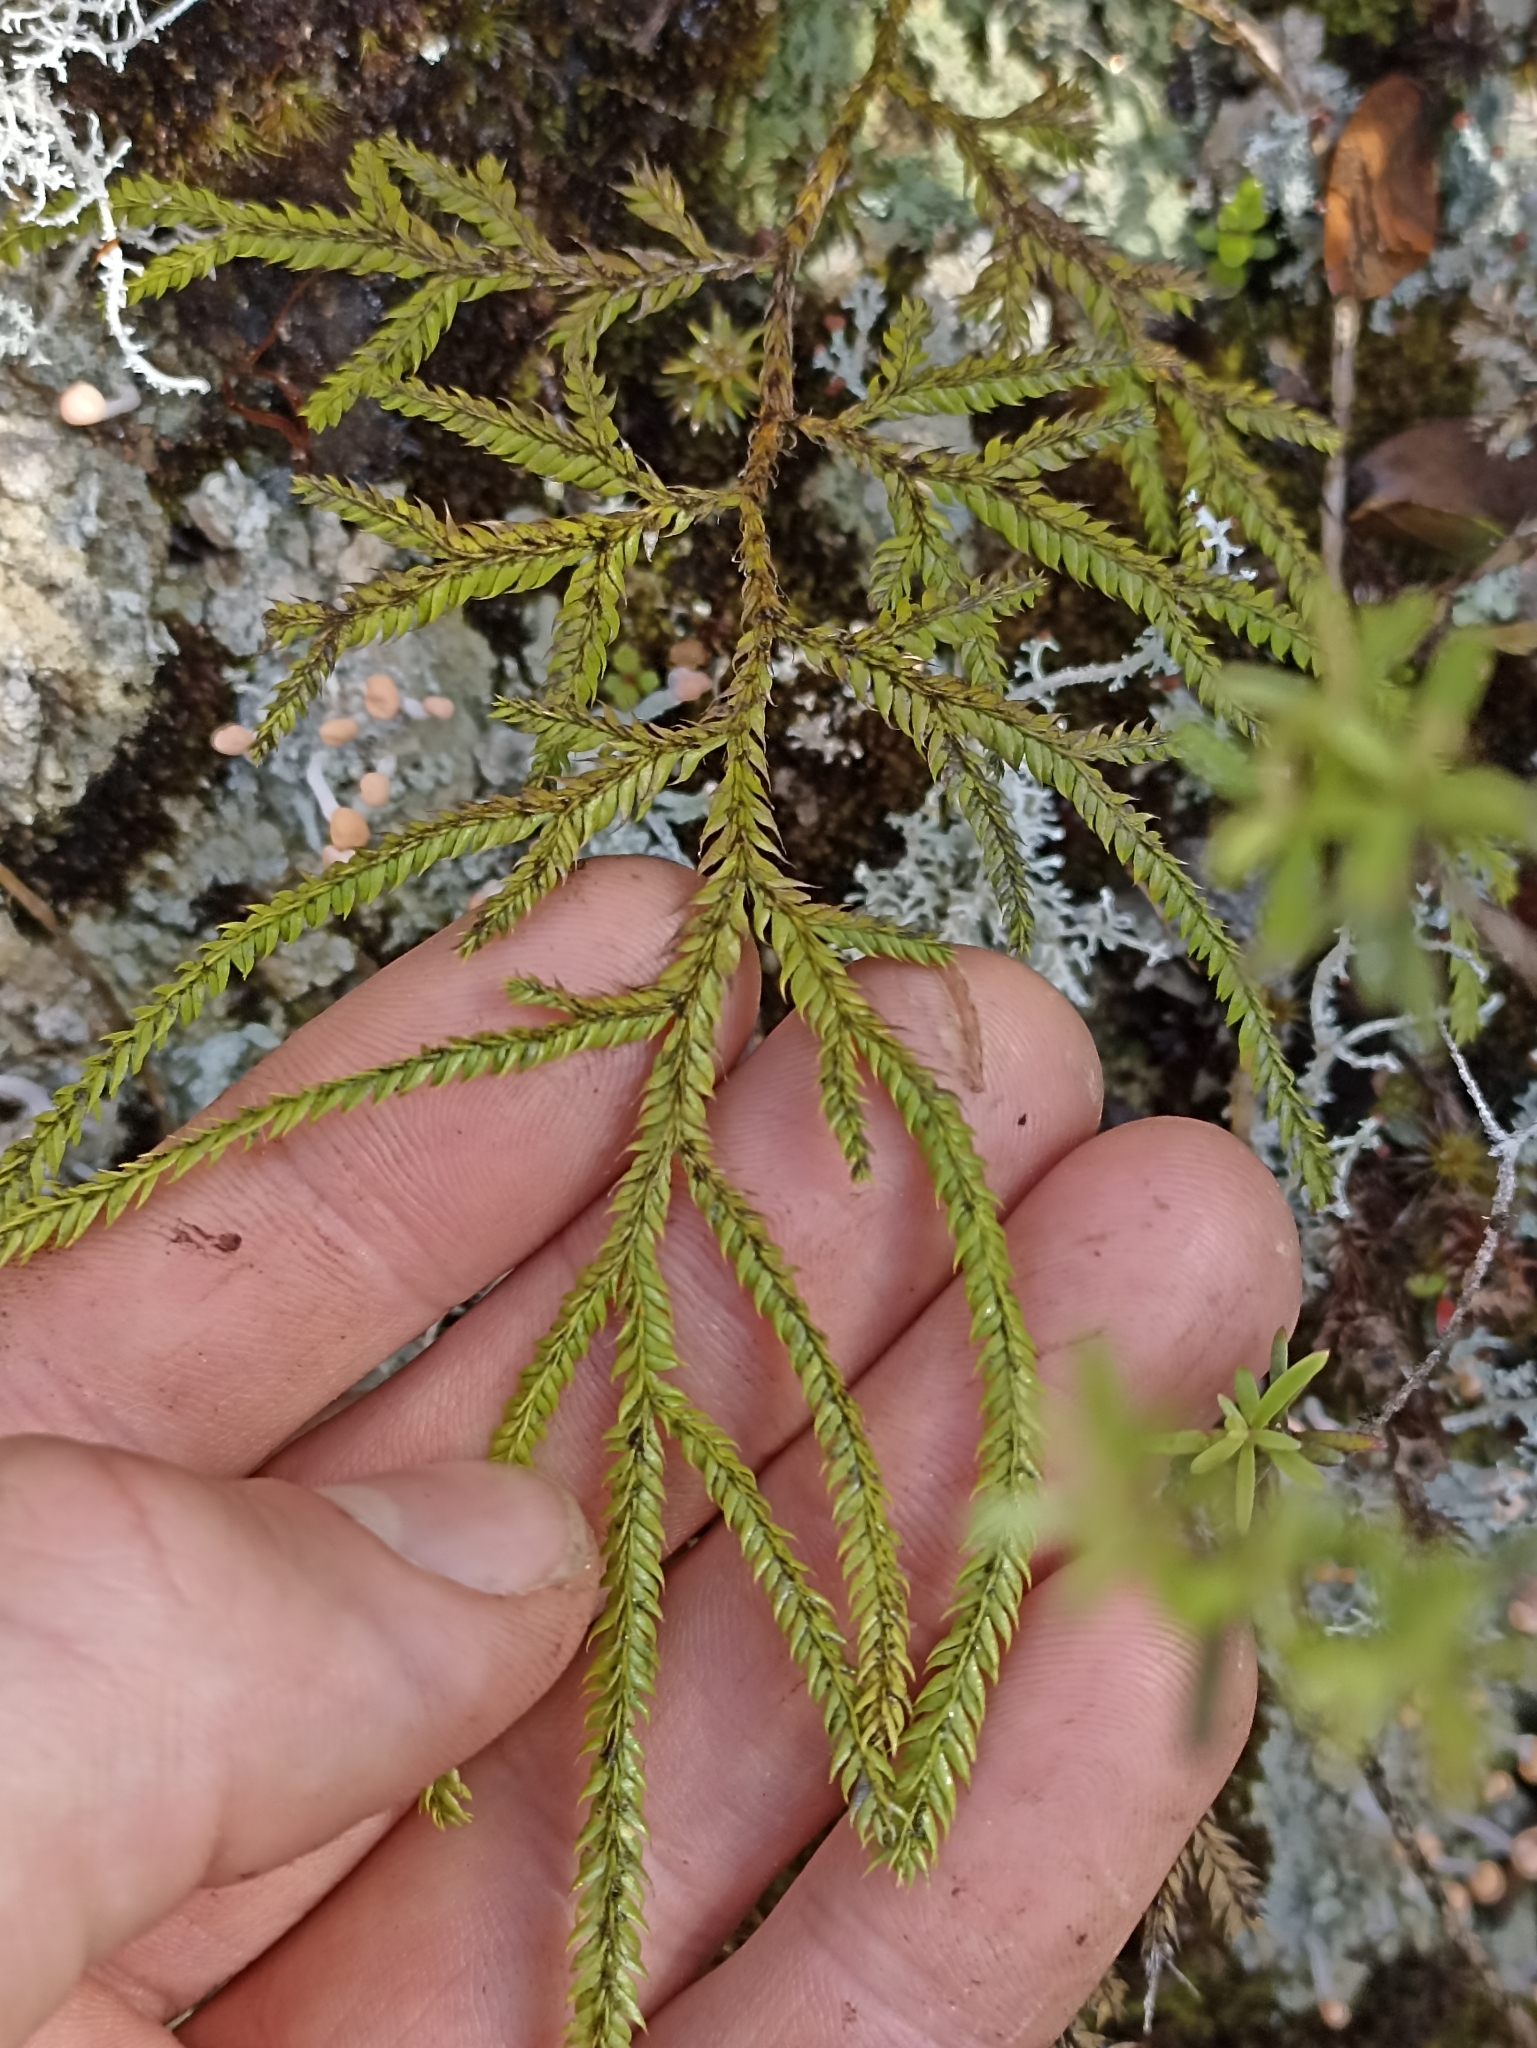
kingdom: Plantae
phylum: Tracheophyta
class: Lycopodiopsida
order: Lycopodiales
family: Lycopodiaceae
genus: Lycopodium
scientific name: Lycopodium volubile
